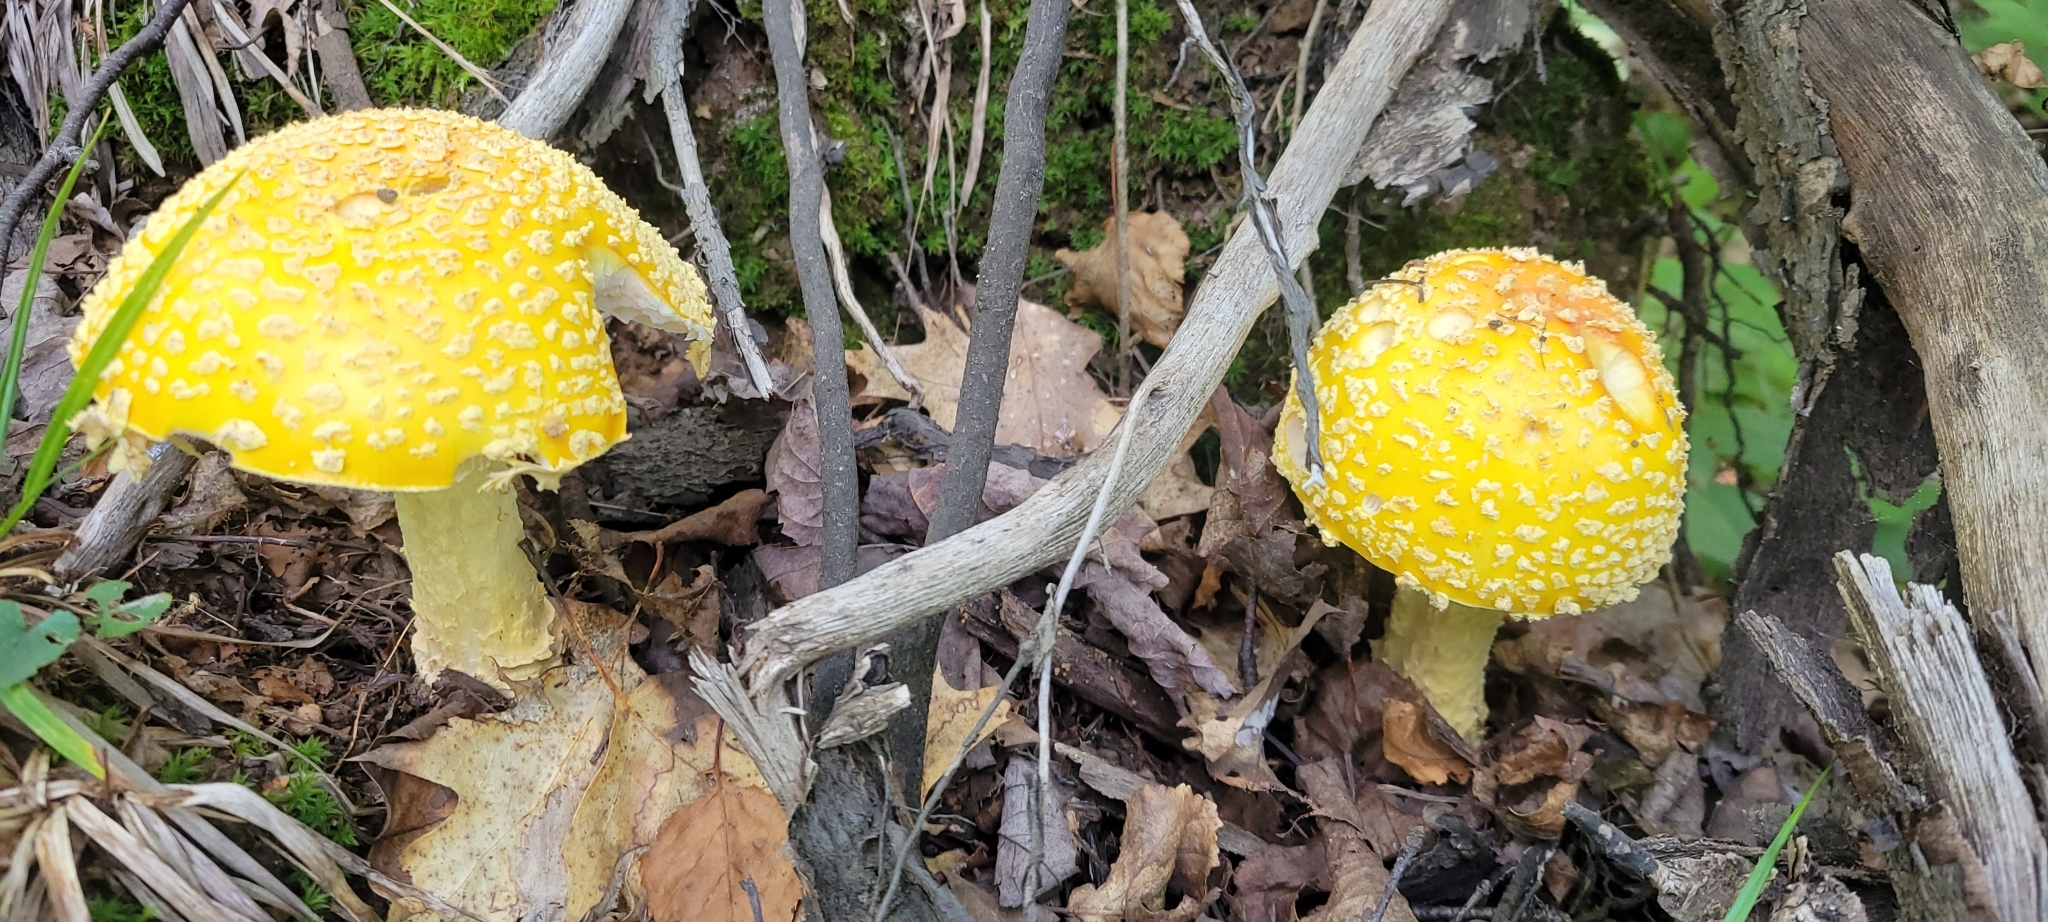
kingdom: Fungi
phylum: Basidiomycota
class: Agaricomycetes
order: Agaricales
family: Amanitaceae
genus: Amanita
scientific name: Amanita muscaria
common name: Fly agaric
